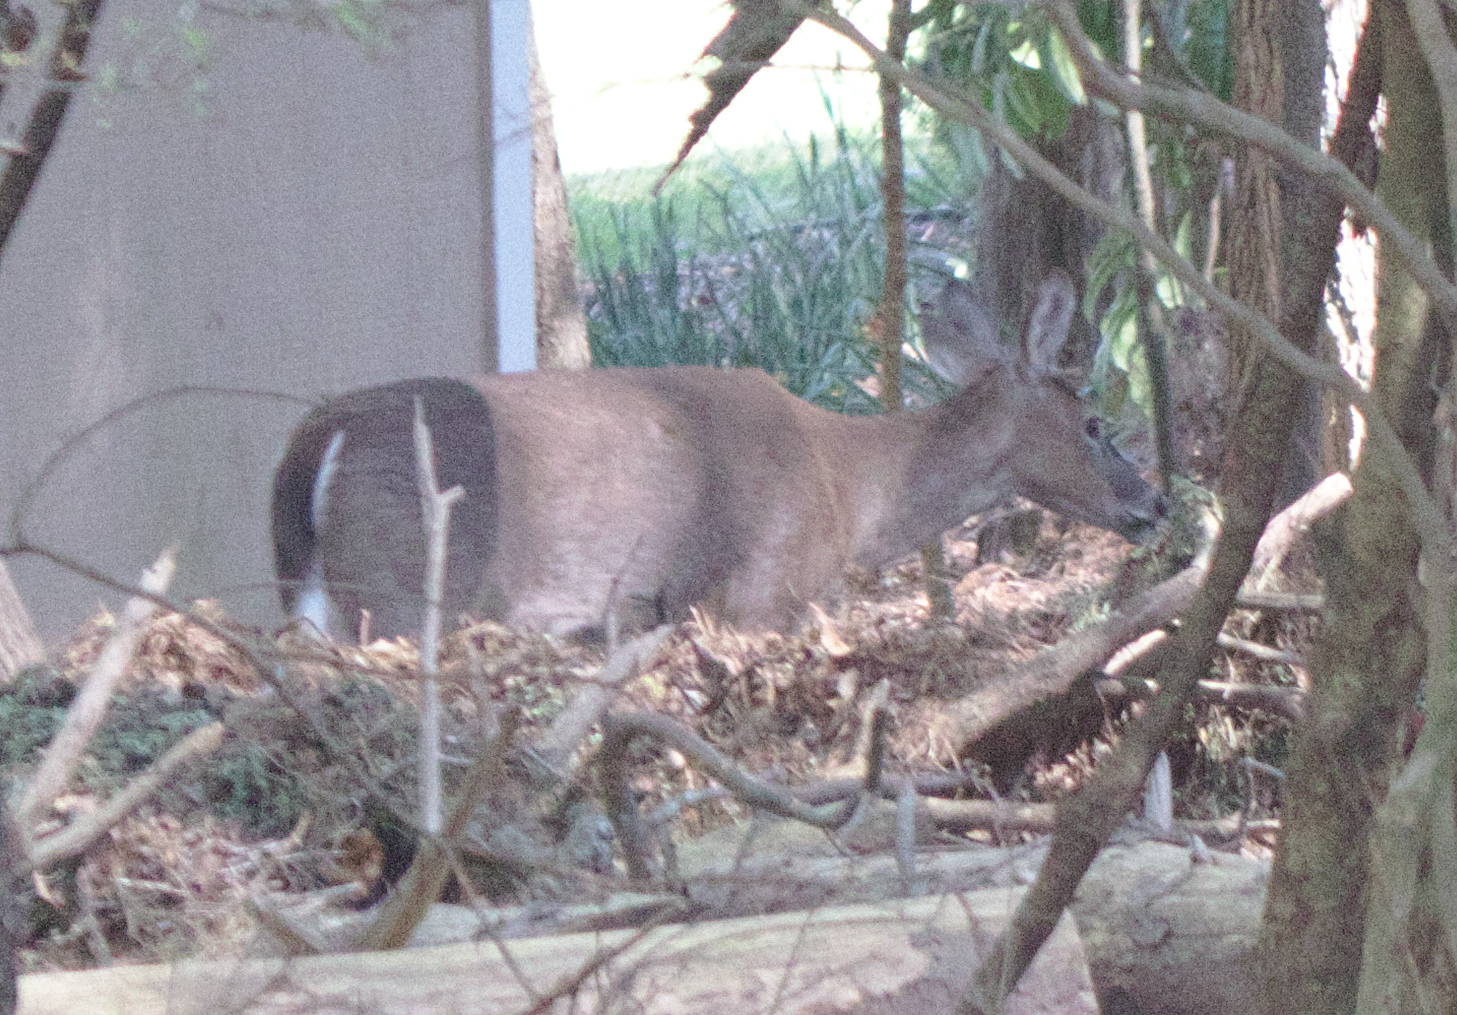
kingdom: Animalia
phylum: Chordata
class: Mammalia
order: Artiodactyla
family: Cervidae
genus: Odocoileus
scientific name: Odocoileus virginianus
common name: White-tailed deer
